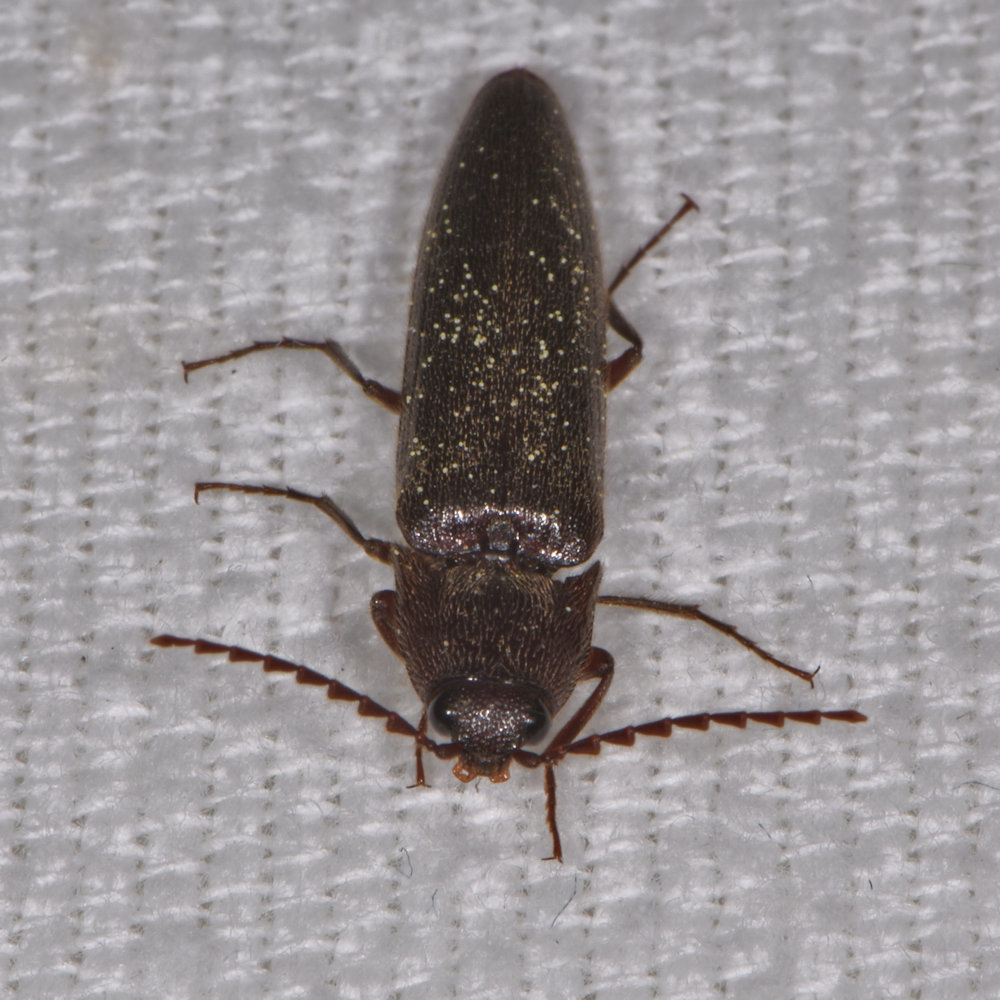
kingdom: Animalia
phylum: Arthropoda
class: Insecta
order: Coleoptera
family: Elateridae
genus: Melanotus
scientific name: Melanotus castanipes
